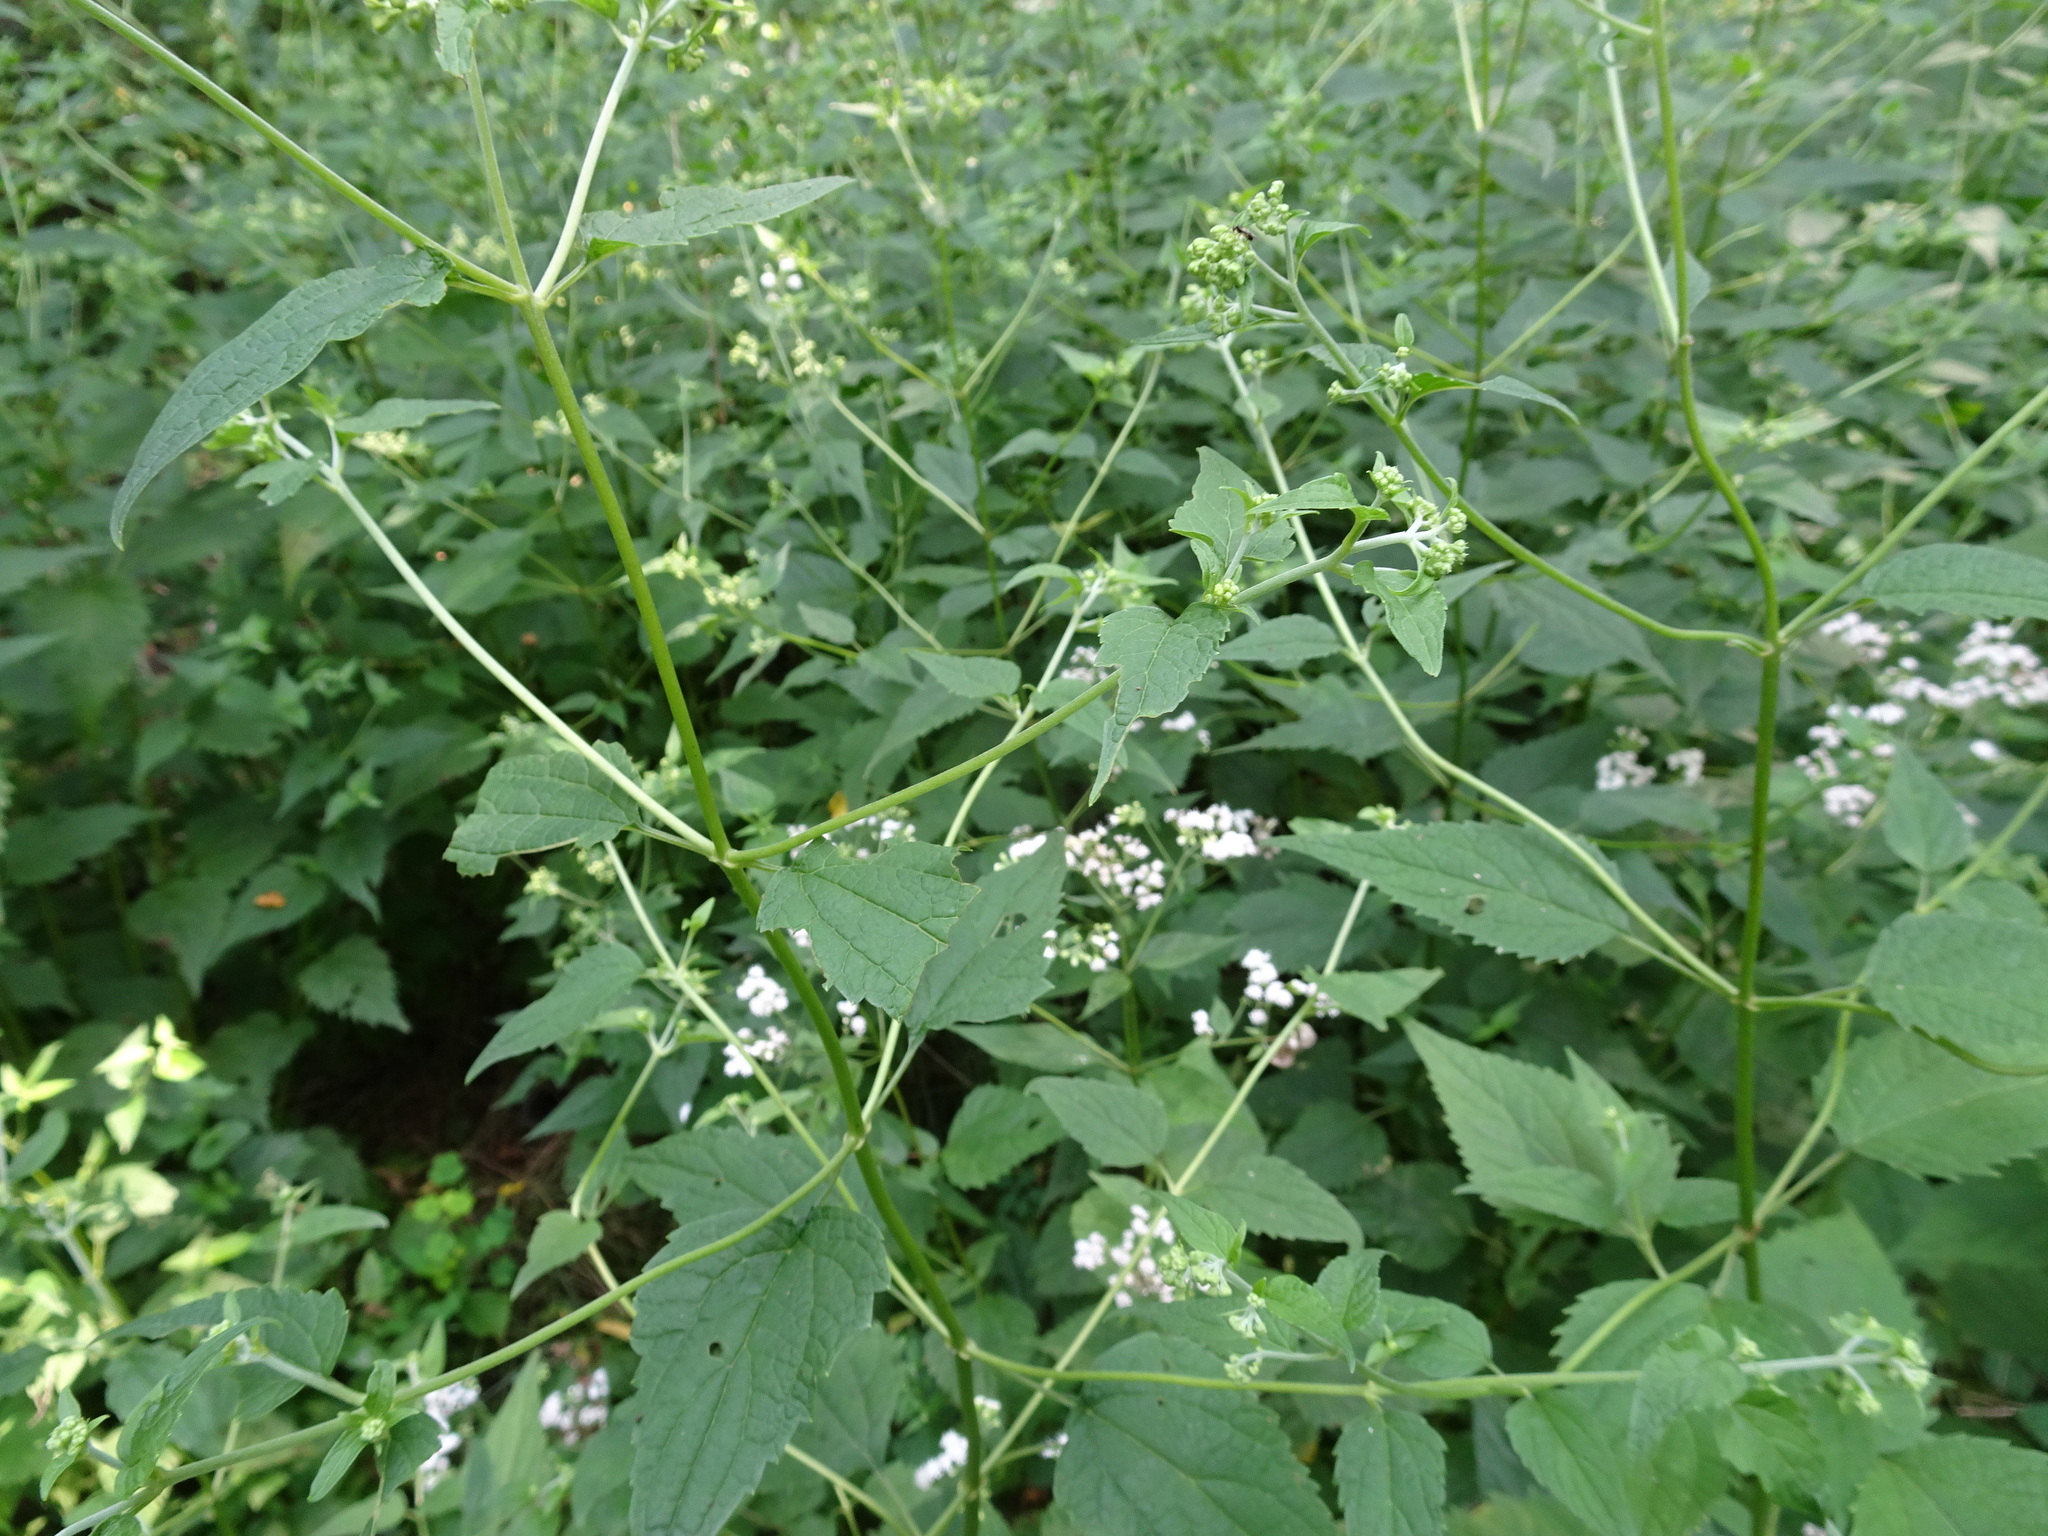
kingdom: Plantae
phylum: Tracheophyta
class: Magnoliopsida
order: Asterales
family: Asteraceae
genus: Ageratina
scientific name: Ageratina altissima
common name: White snakeroot
